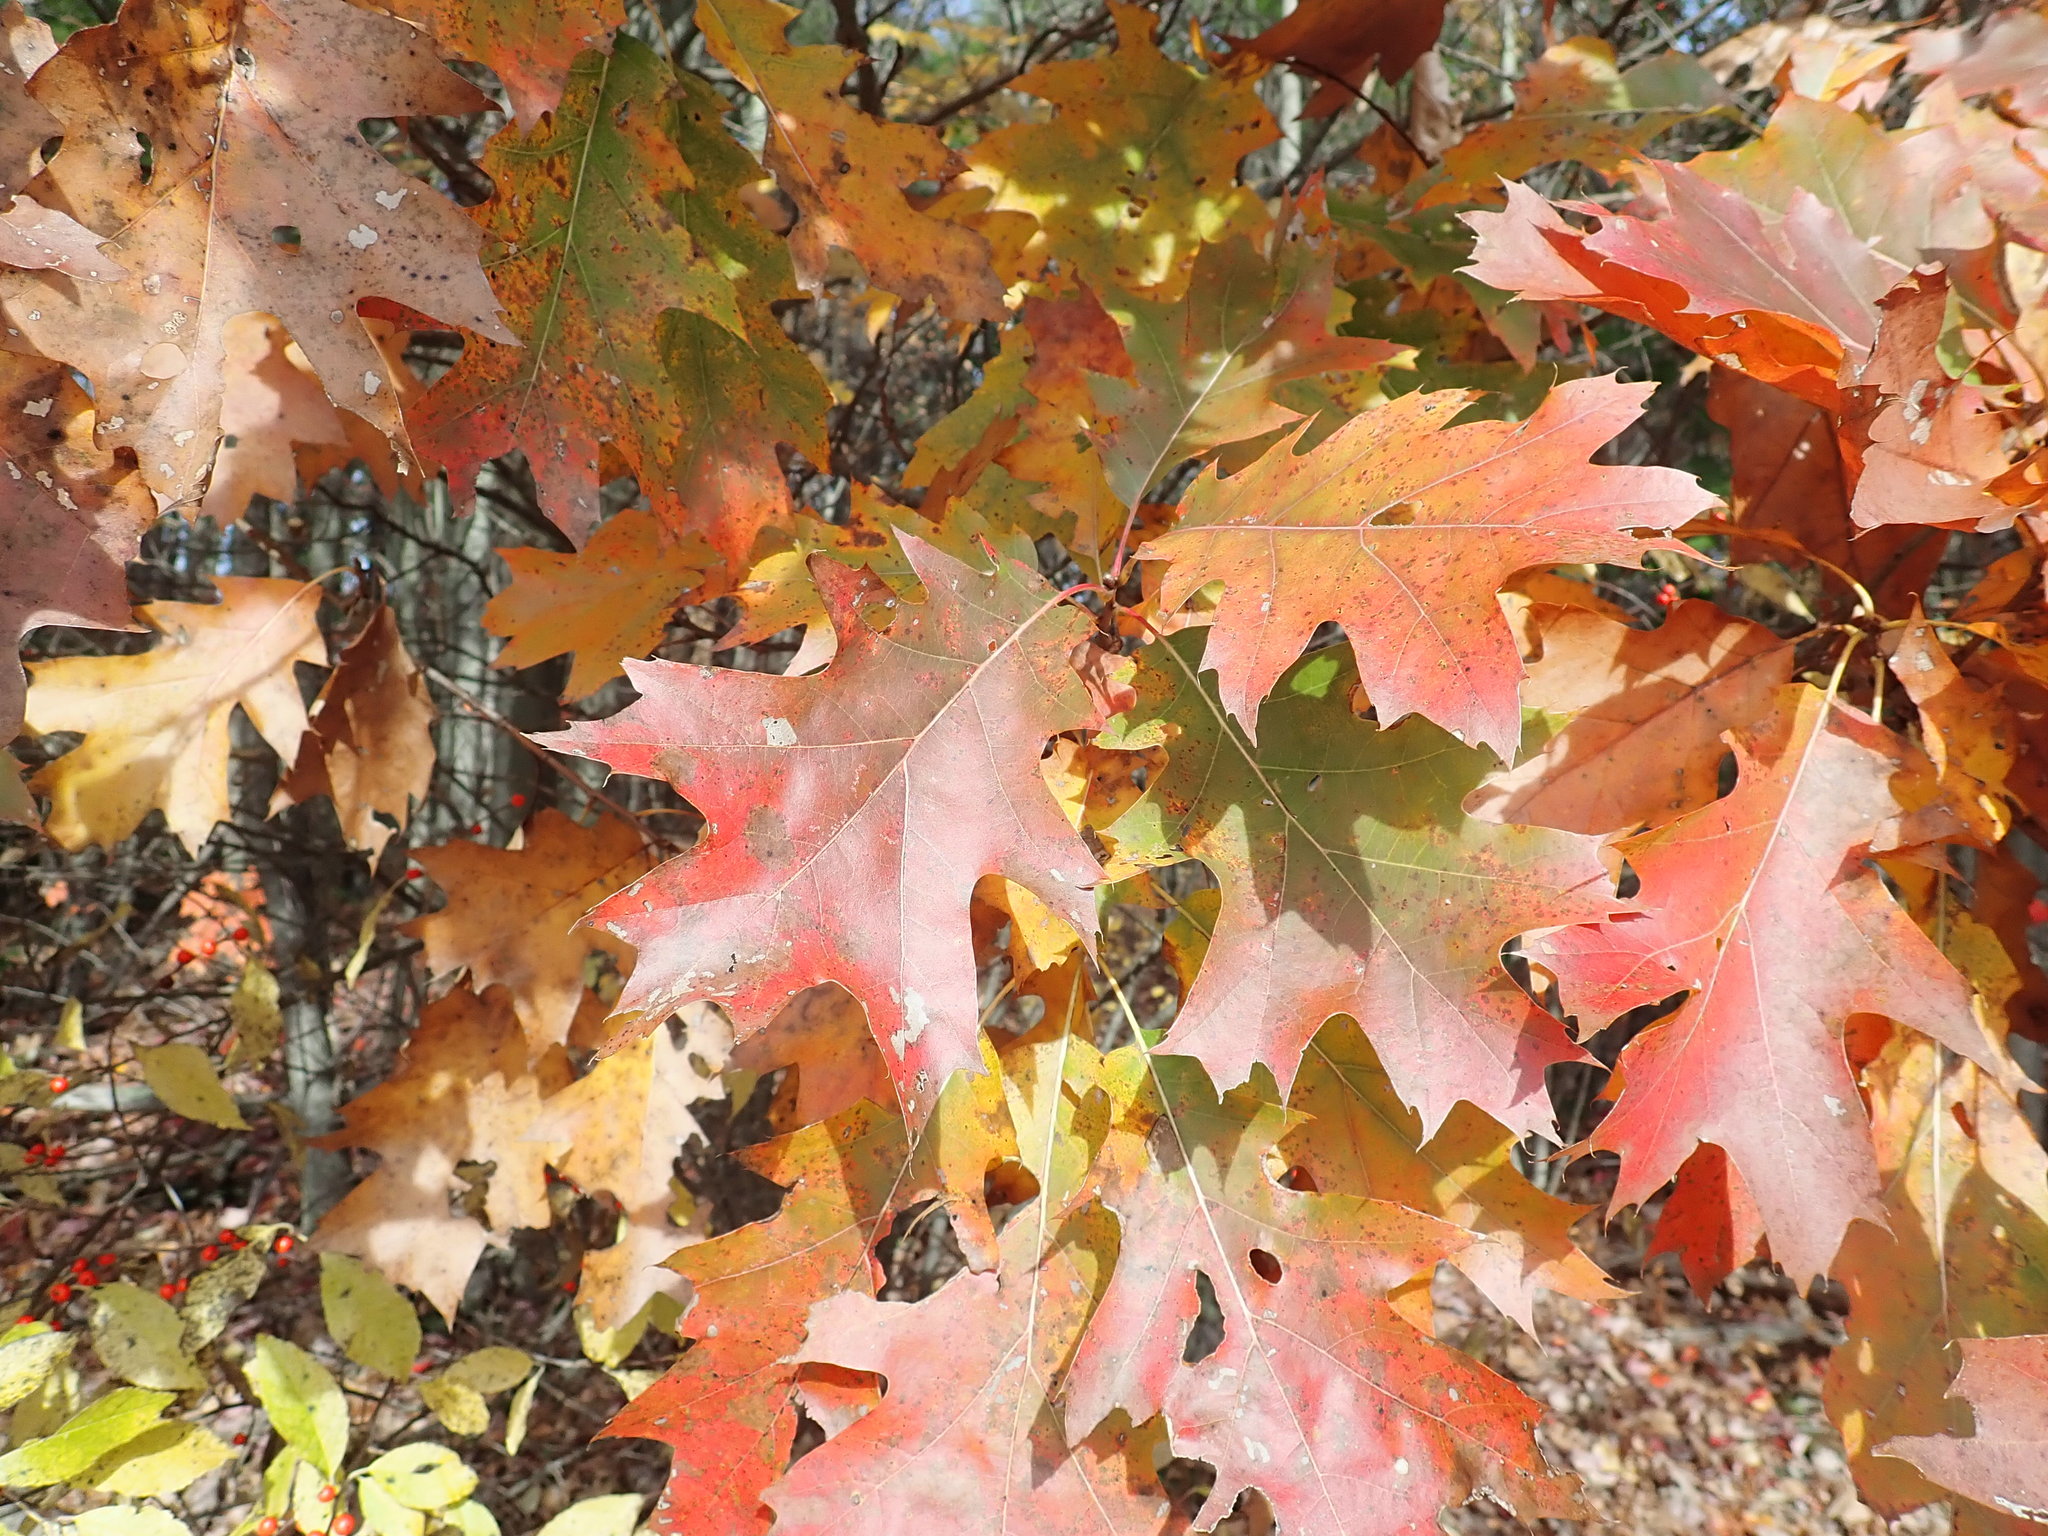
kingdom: Plantae
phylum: Tracheophyta
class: Magnoliopsida
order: Fagales
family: Fagaceae
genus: Quercus
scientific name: Quercus rubra
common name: Red oak
